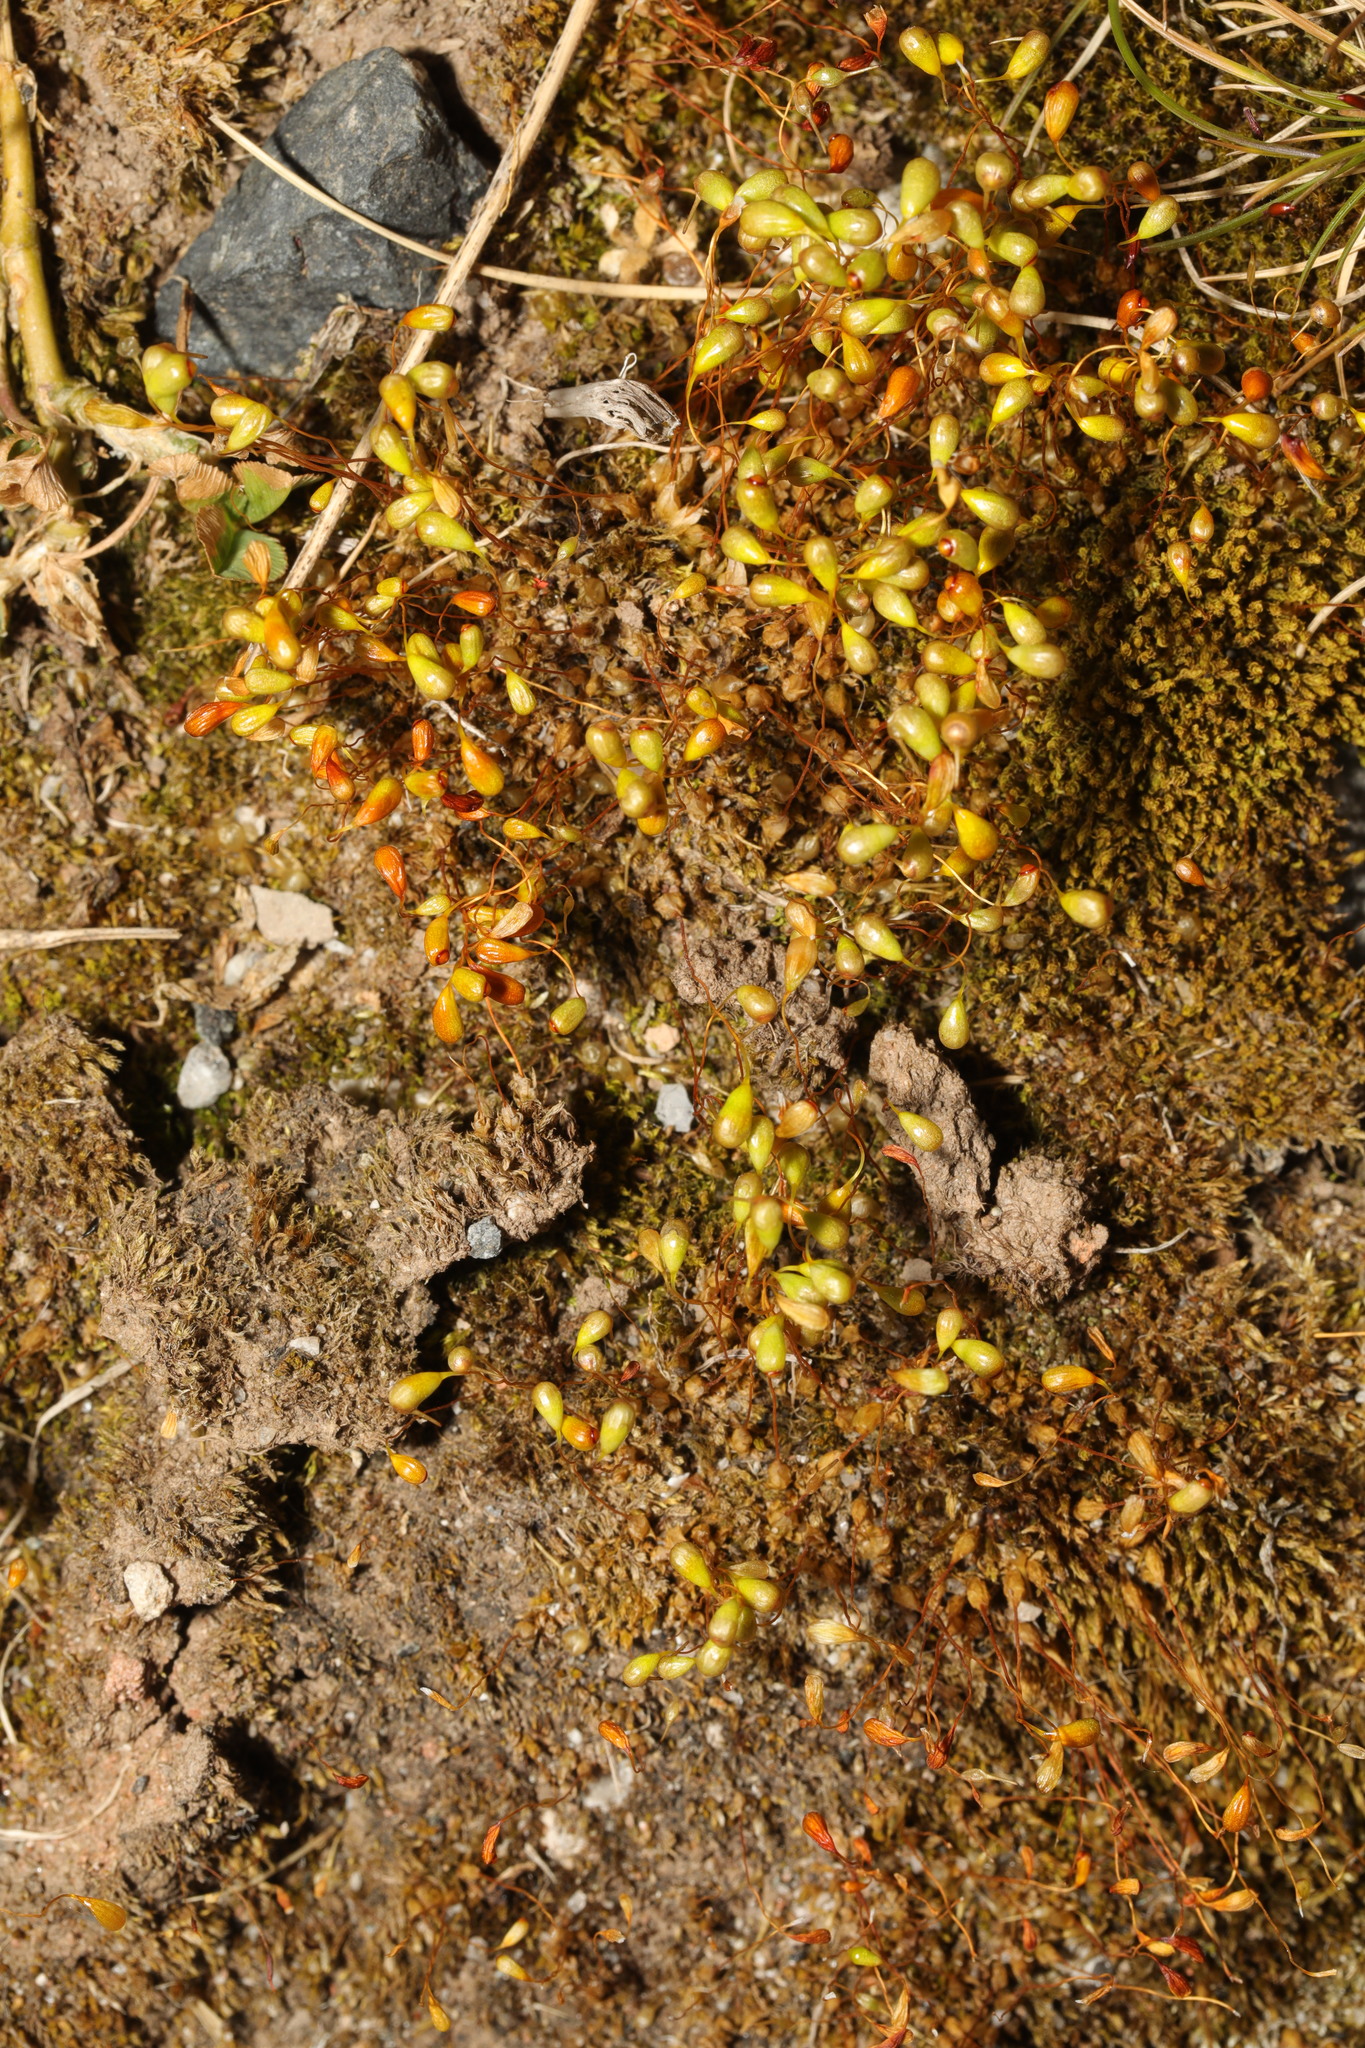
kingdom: Plantae
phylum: Bryophyta
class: Bryopsida
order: Funariales
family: Funariaceae
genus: Funaria
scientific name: Funaria hygrometrica
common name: Common cord moss
